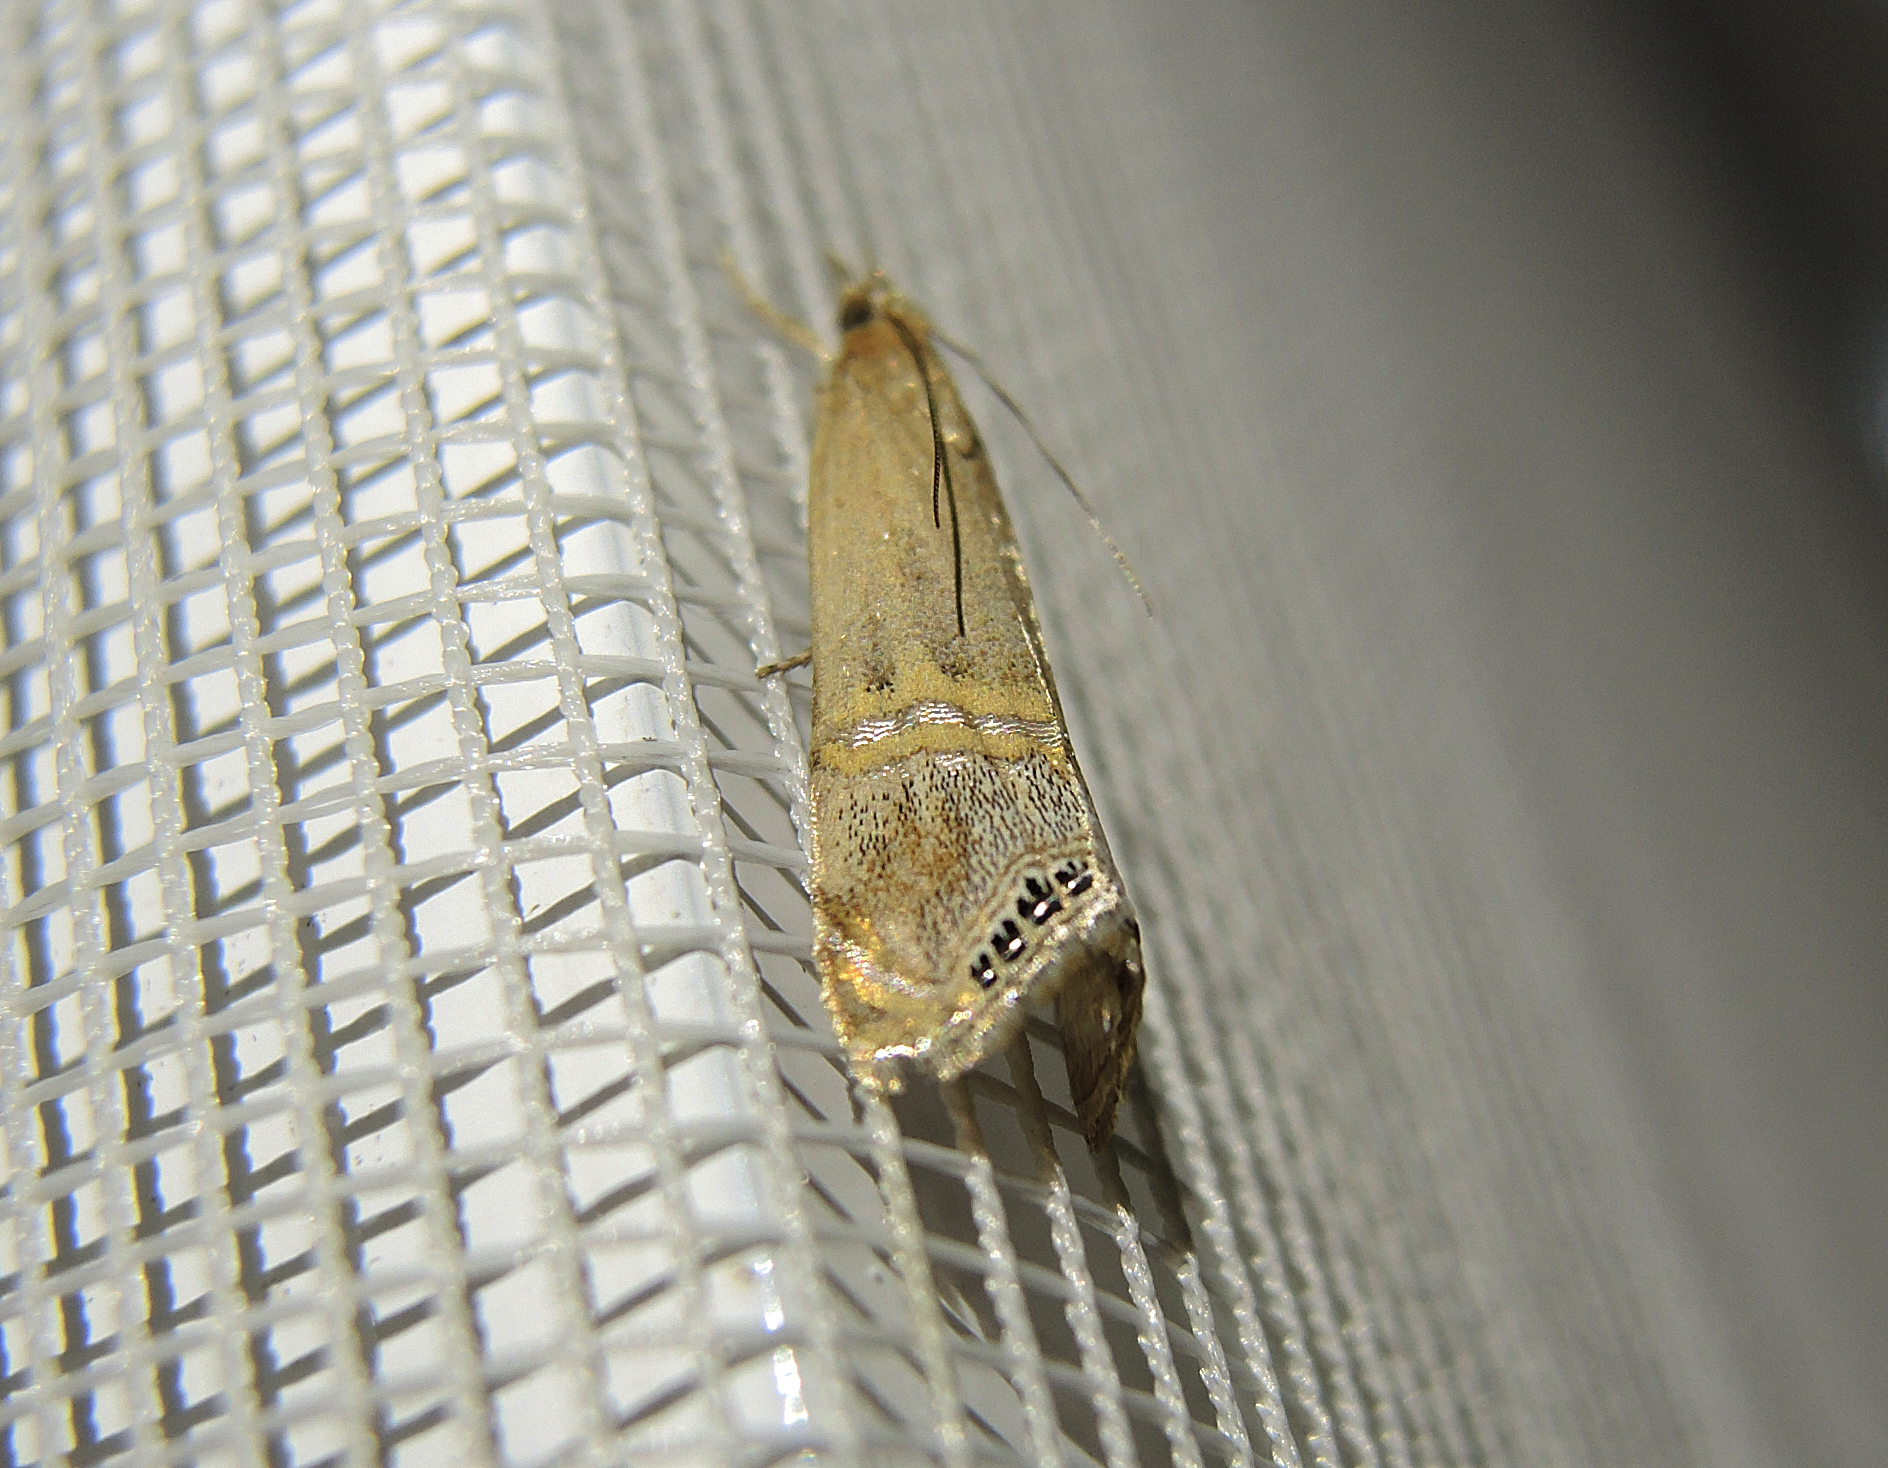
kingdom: Animalia
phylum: Arthropoda
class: Insecta
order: Lepidoptera
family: Crambidae
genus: Euchromius
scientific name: Euchromius ocellea
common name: Necklace veneer moth
